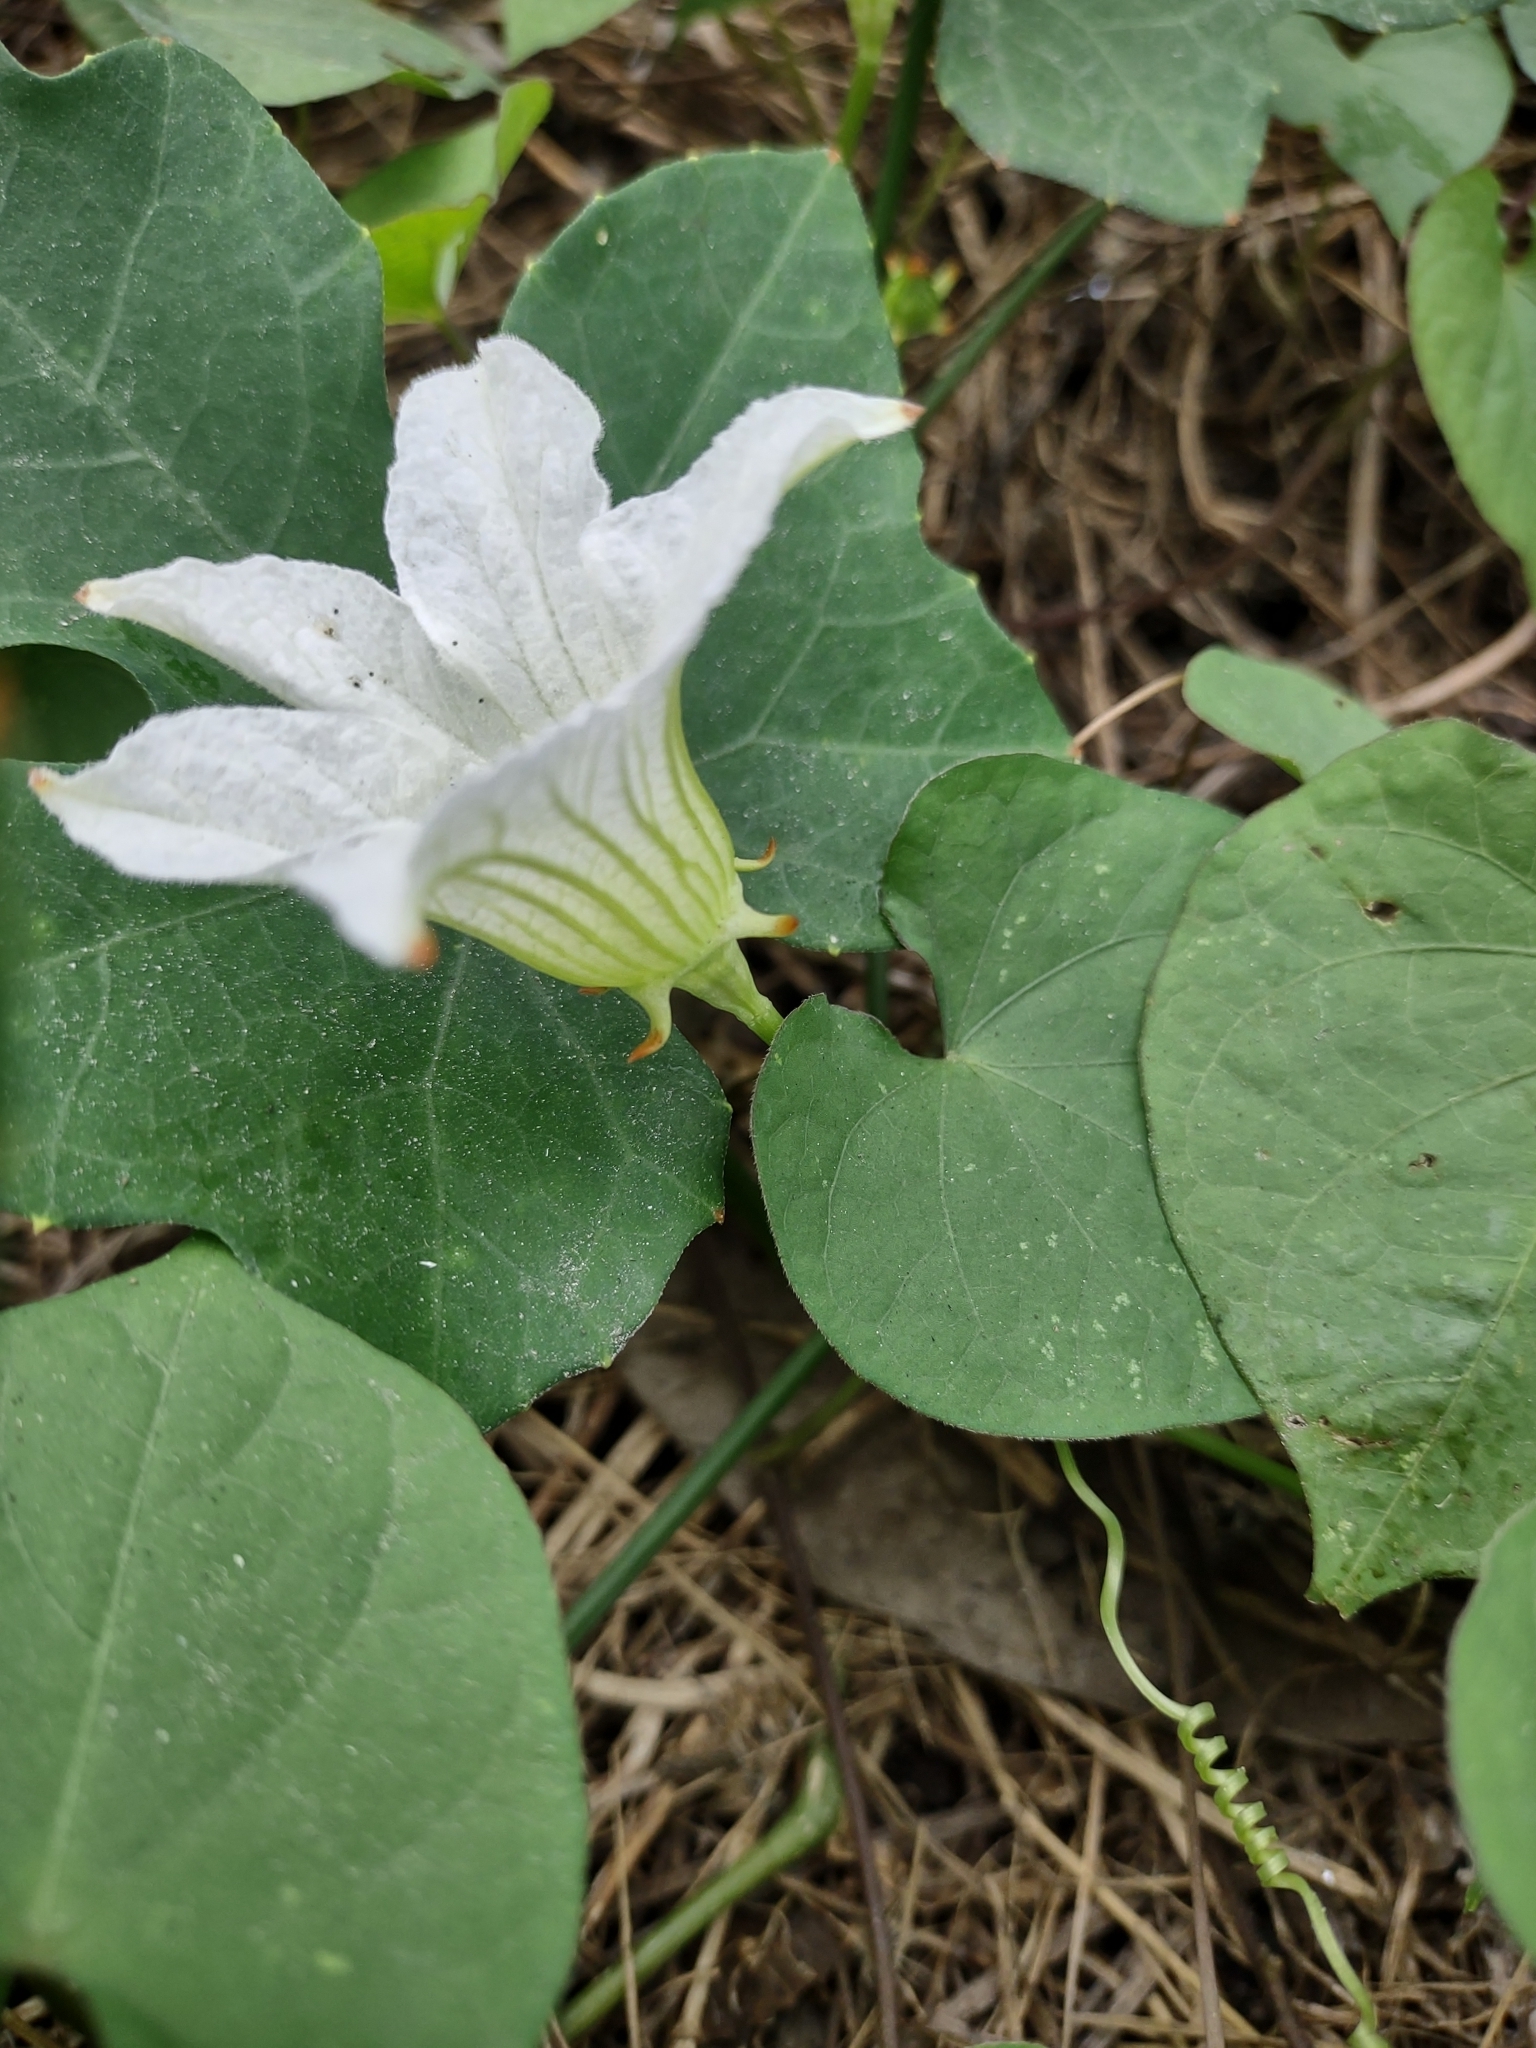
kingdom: Plantae
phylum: Tracheophyta
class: Magnoliopsida
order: Cucurbitales
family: Cucurbitaceae
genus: Coccinia
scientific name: Coccinia grandis
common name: Ivy gourd
